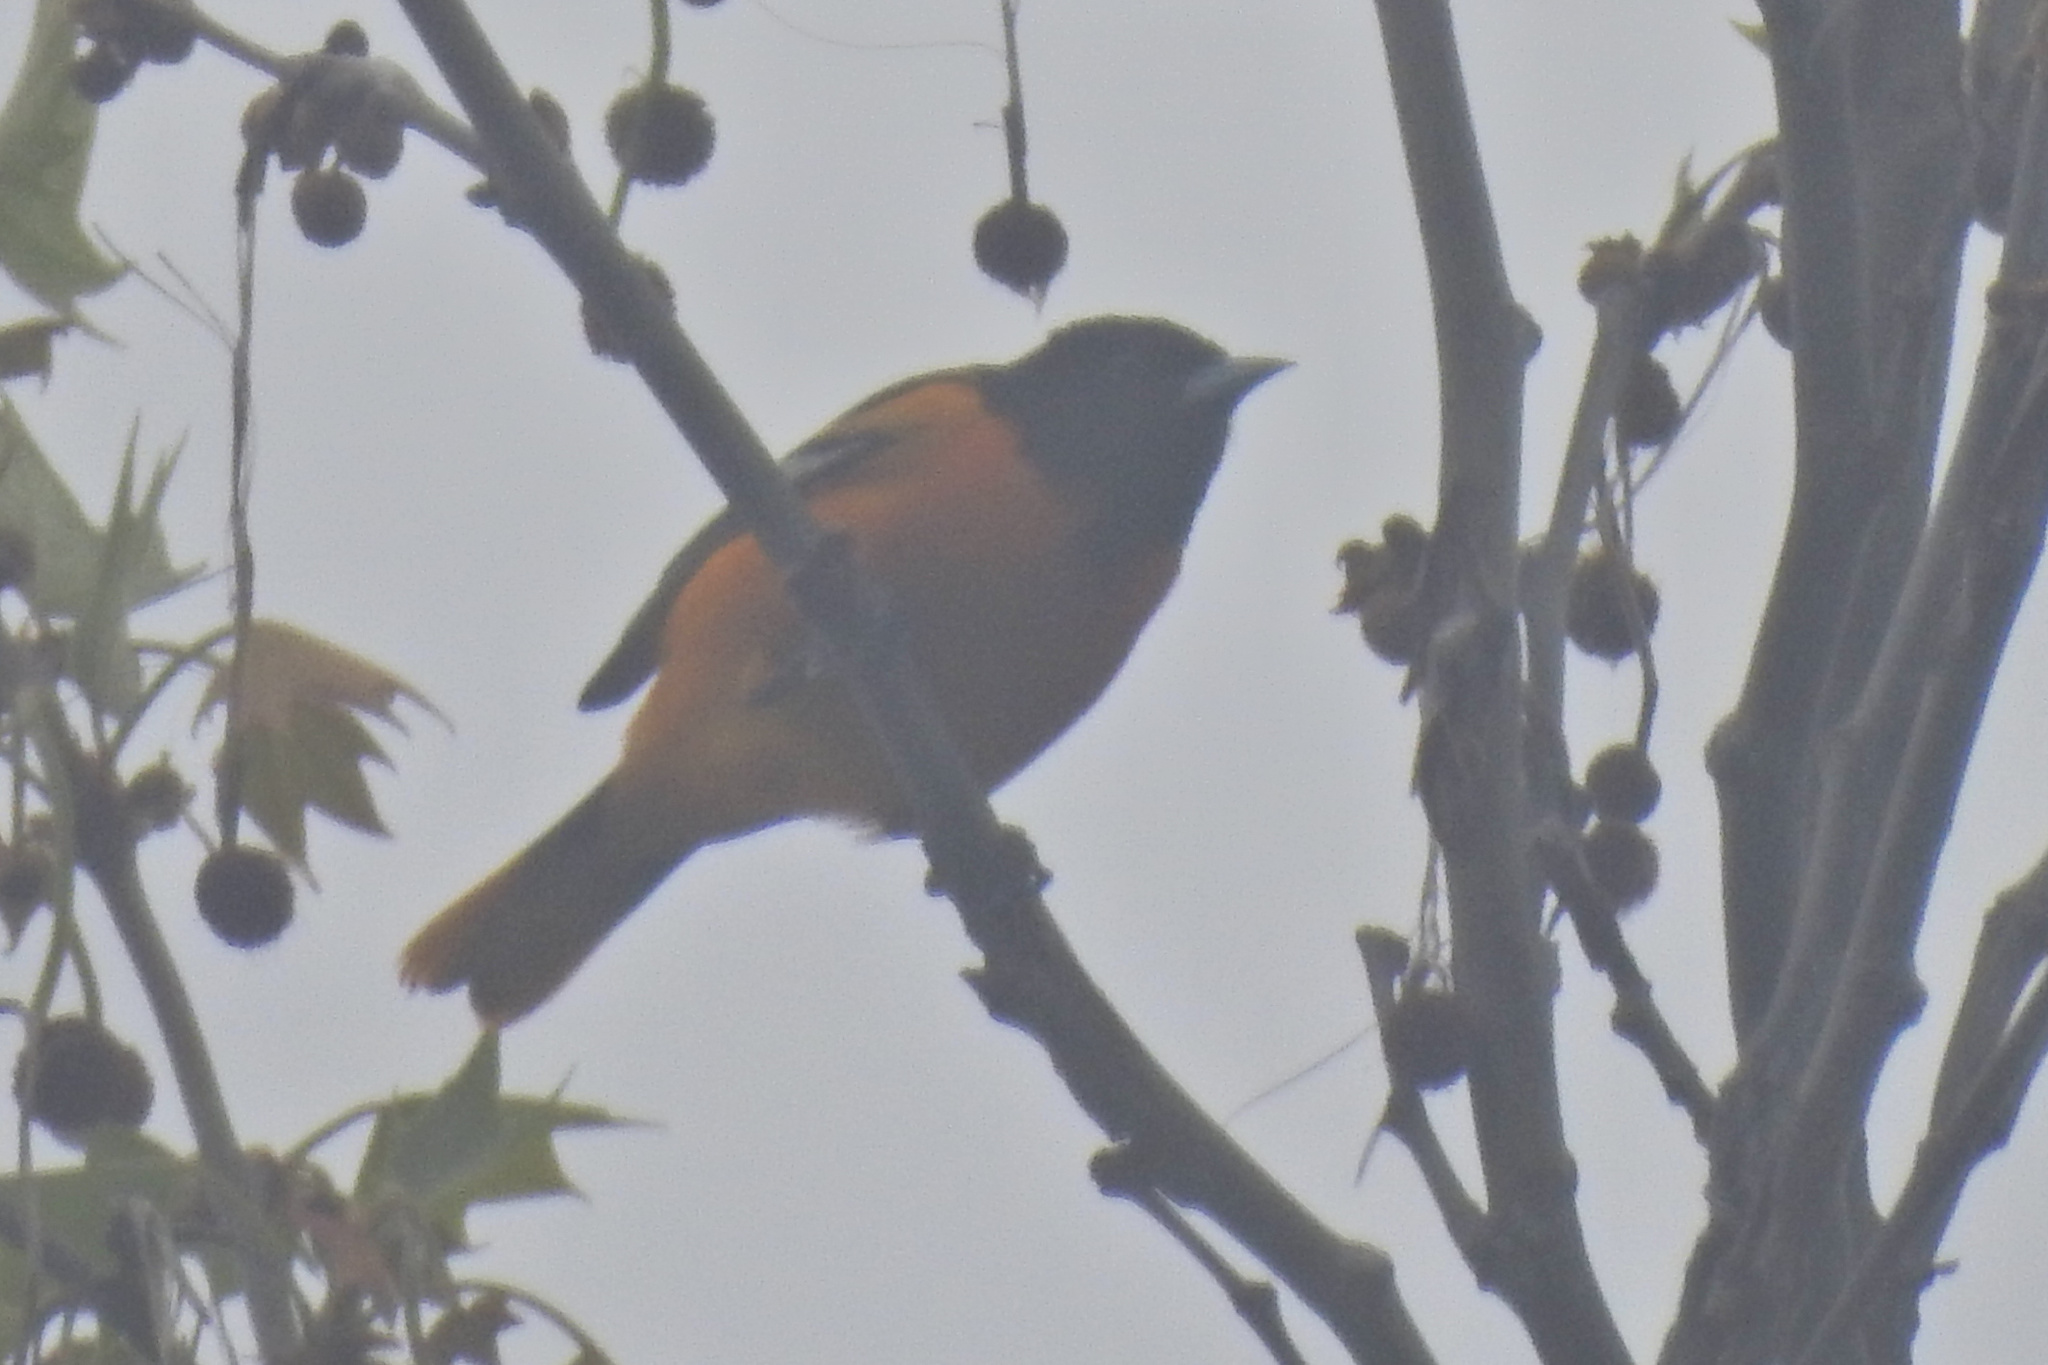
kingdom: Animalia
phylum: Chordata
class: Aves
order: Passeriformes
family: Icteridae
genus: Icterus
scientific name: Icterus galbula
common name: Baltimore oriole
